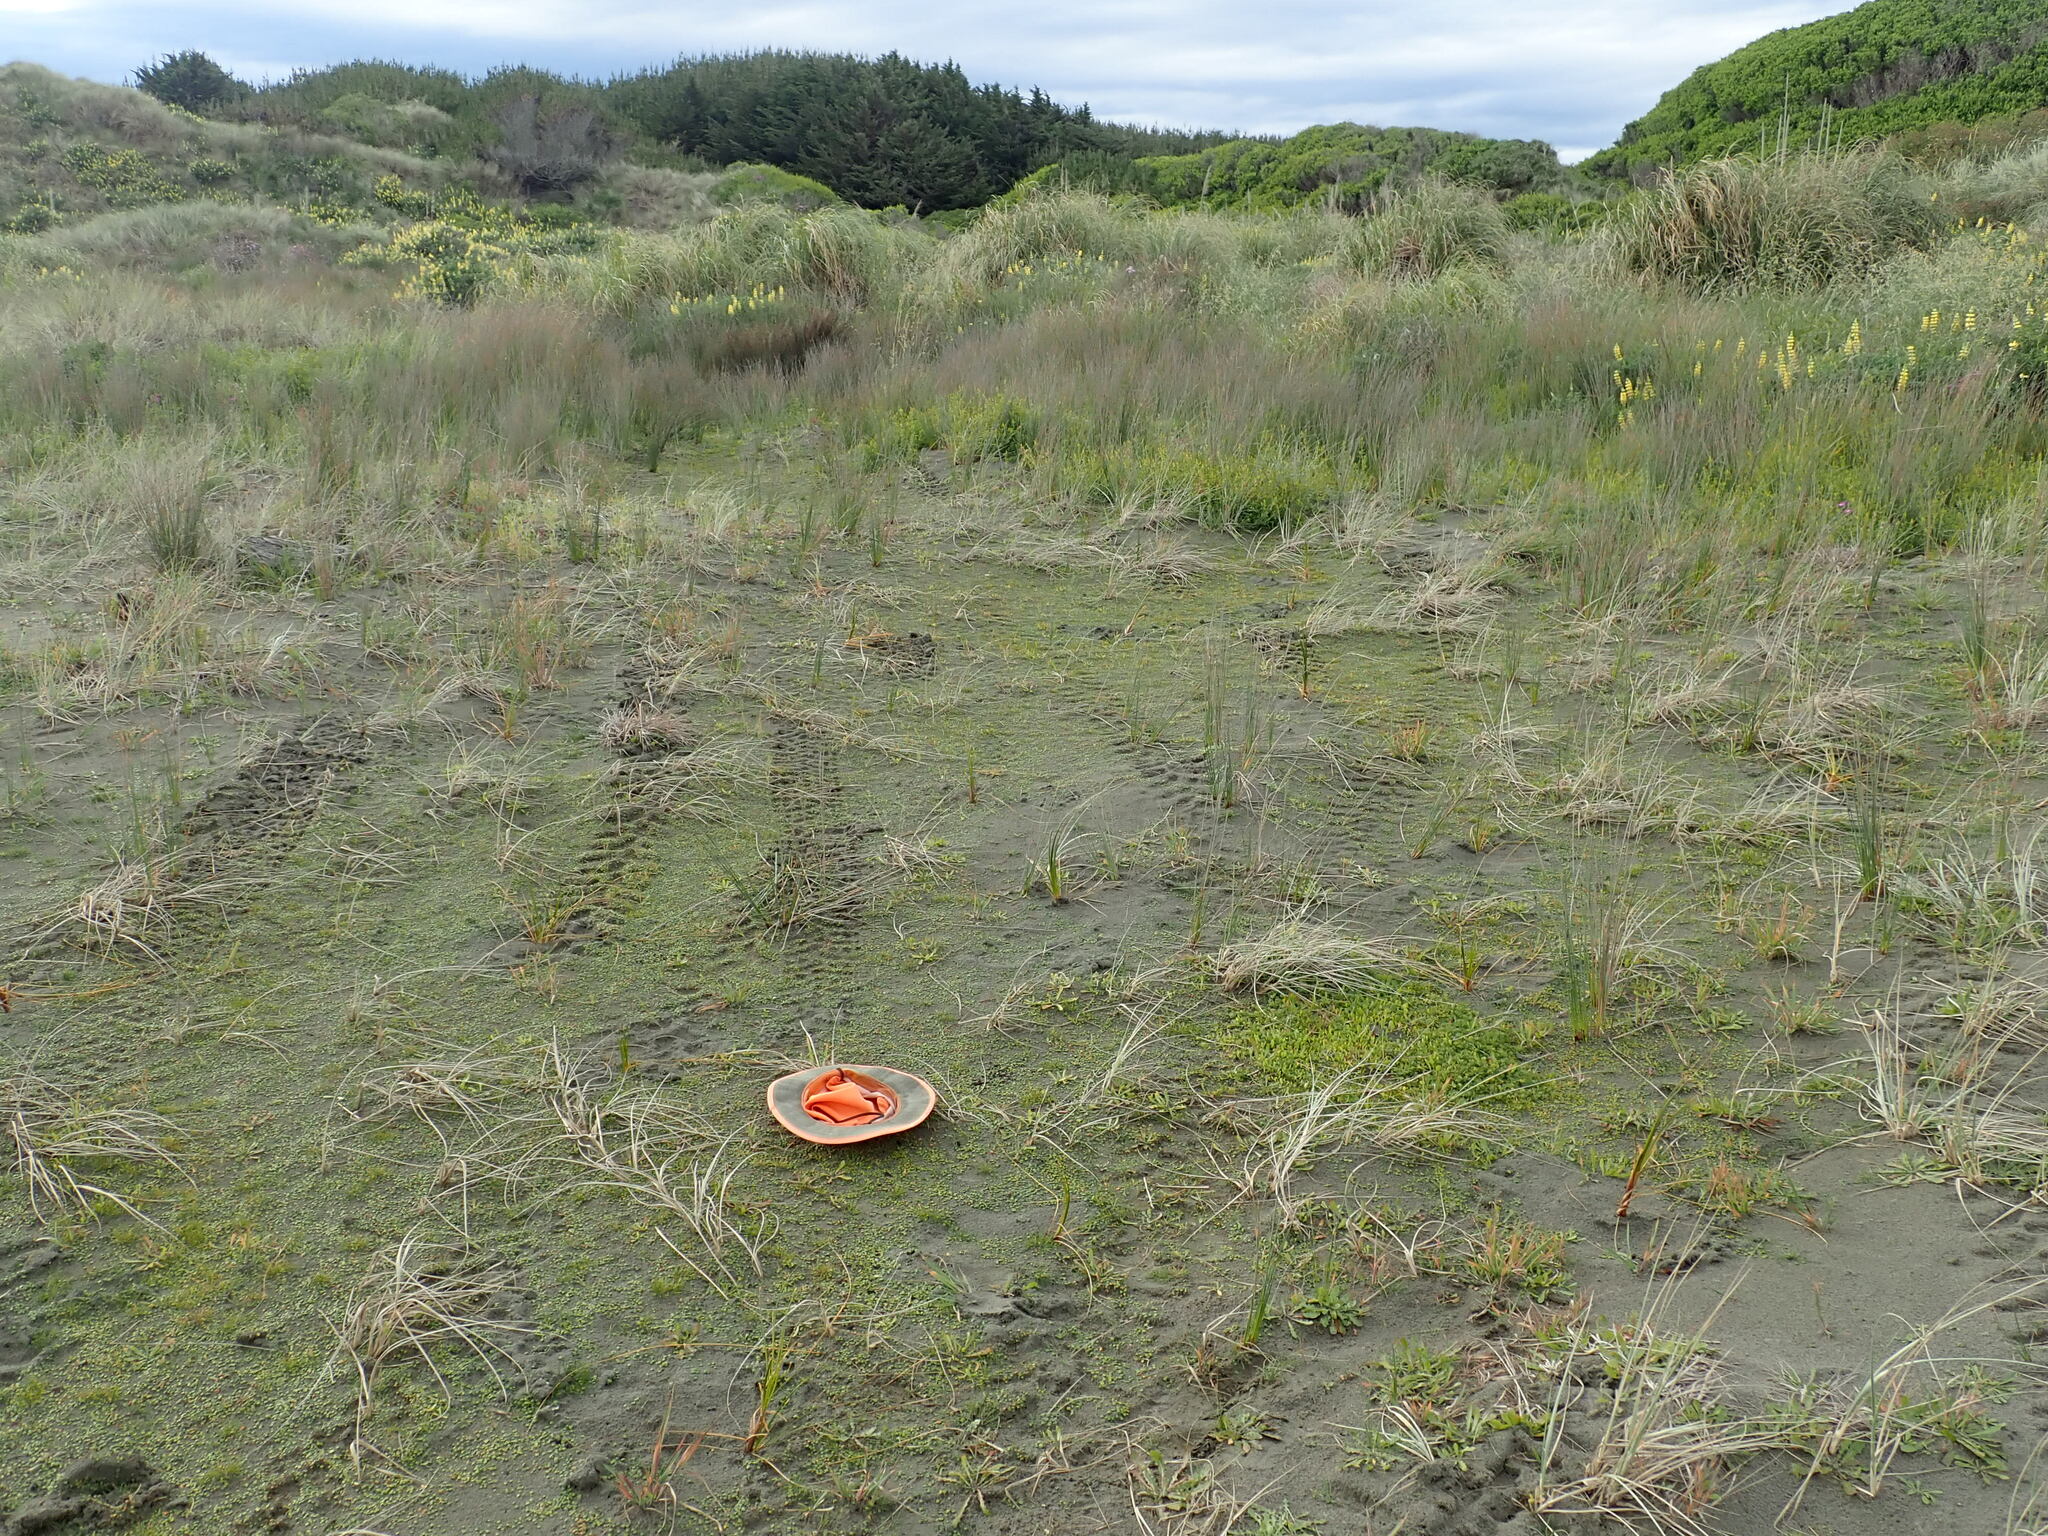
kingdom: Plantae
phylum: Tracheophyta
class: Liliopsida
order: Poales
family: Cyperaceae
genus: Isolepis
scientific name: Isolepis cernua
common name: Slender club-rush
